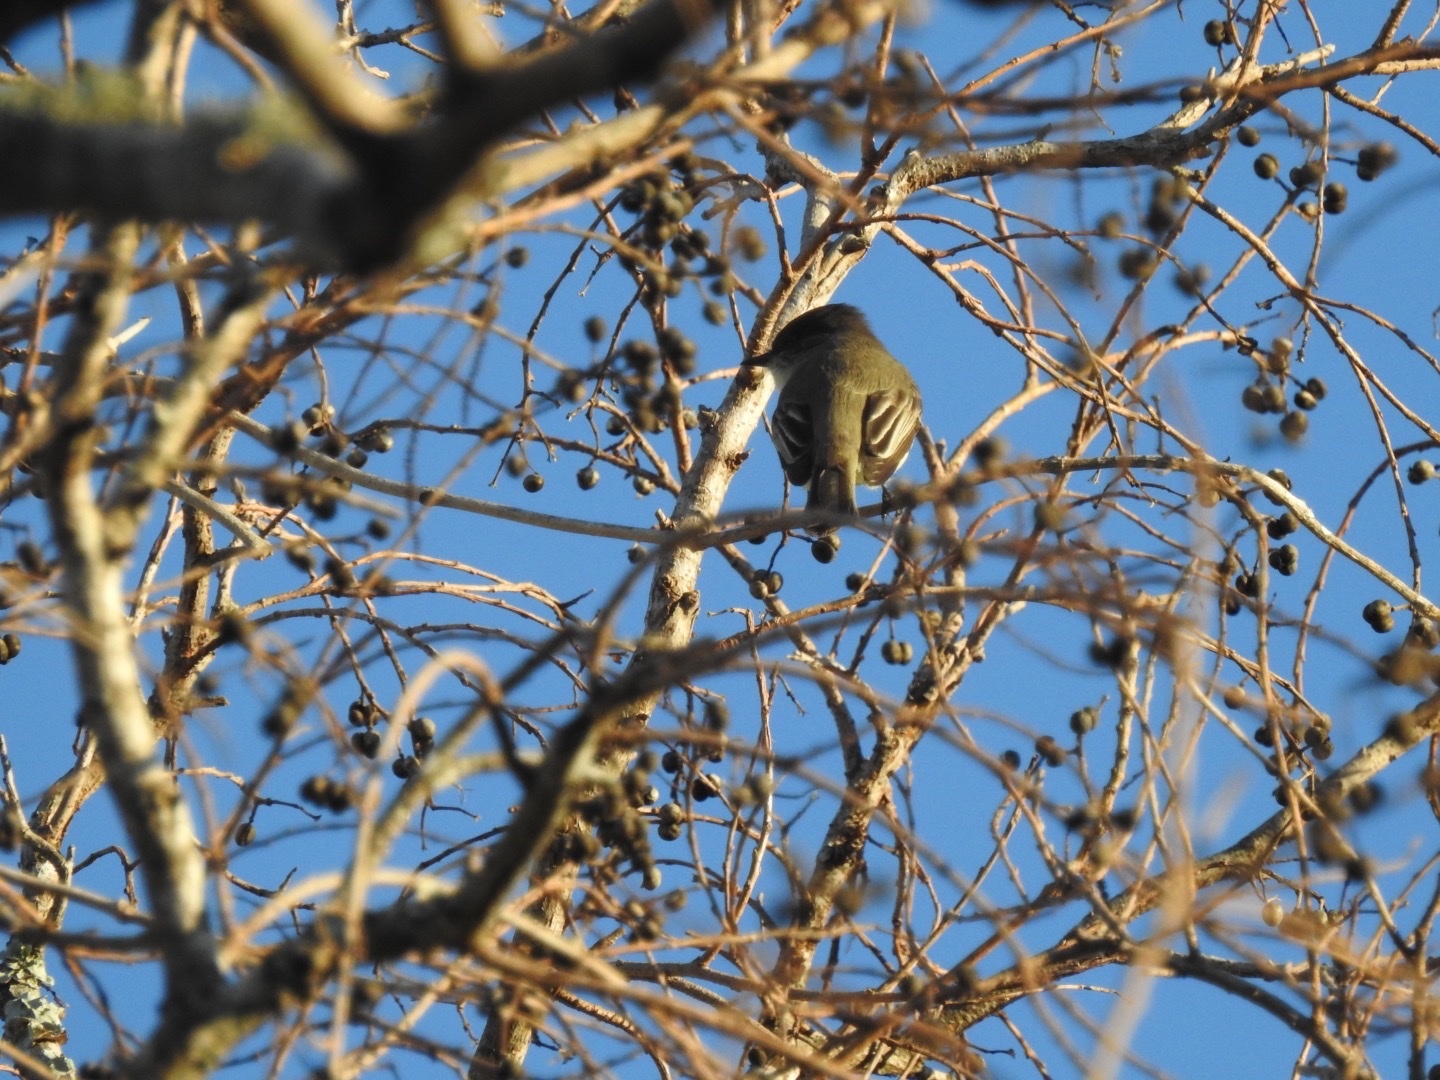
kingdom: Animalia
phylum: Chordata
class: Aves
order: Passeriformes
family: Tyrannidae
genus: Sayornis
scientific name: Sayornis phoebe
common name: Eastern phoebe
